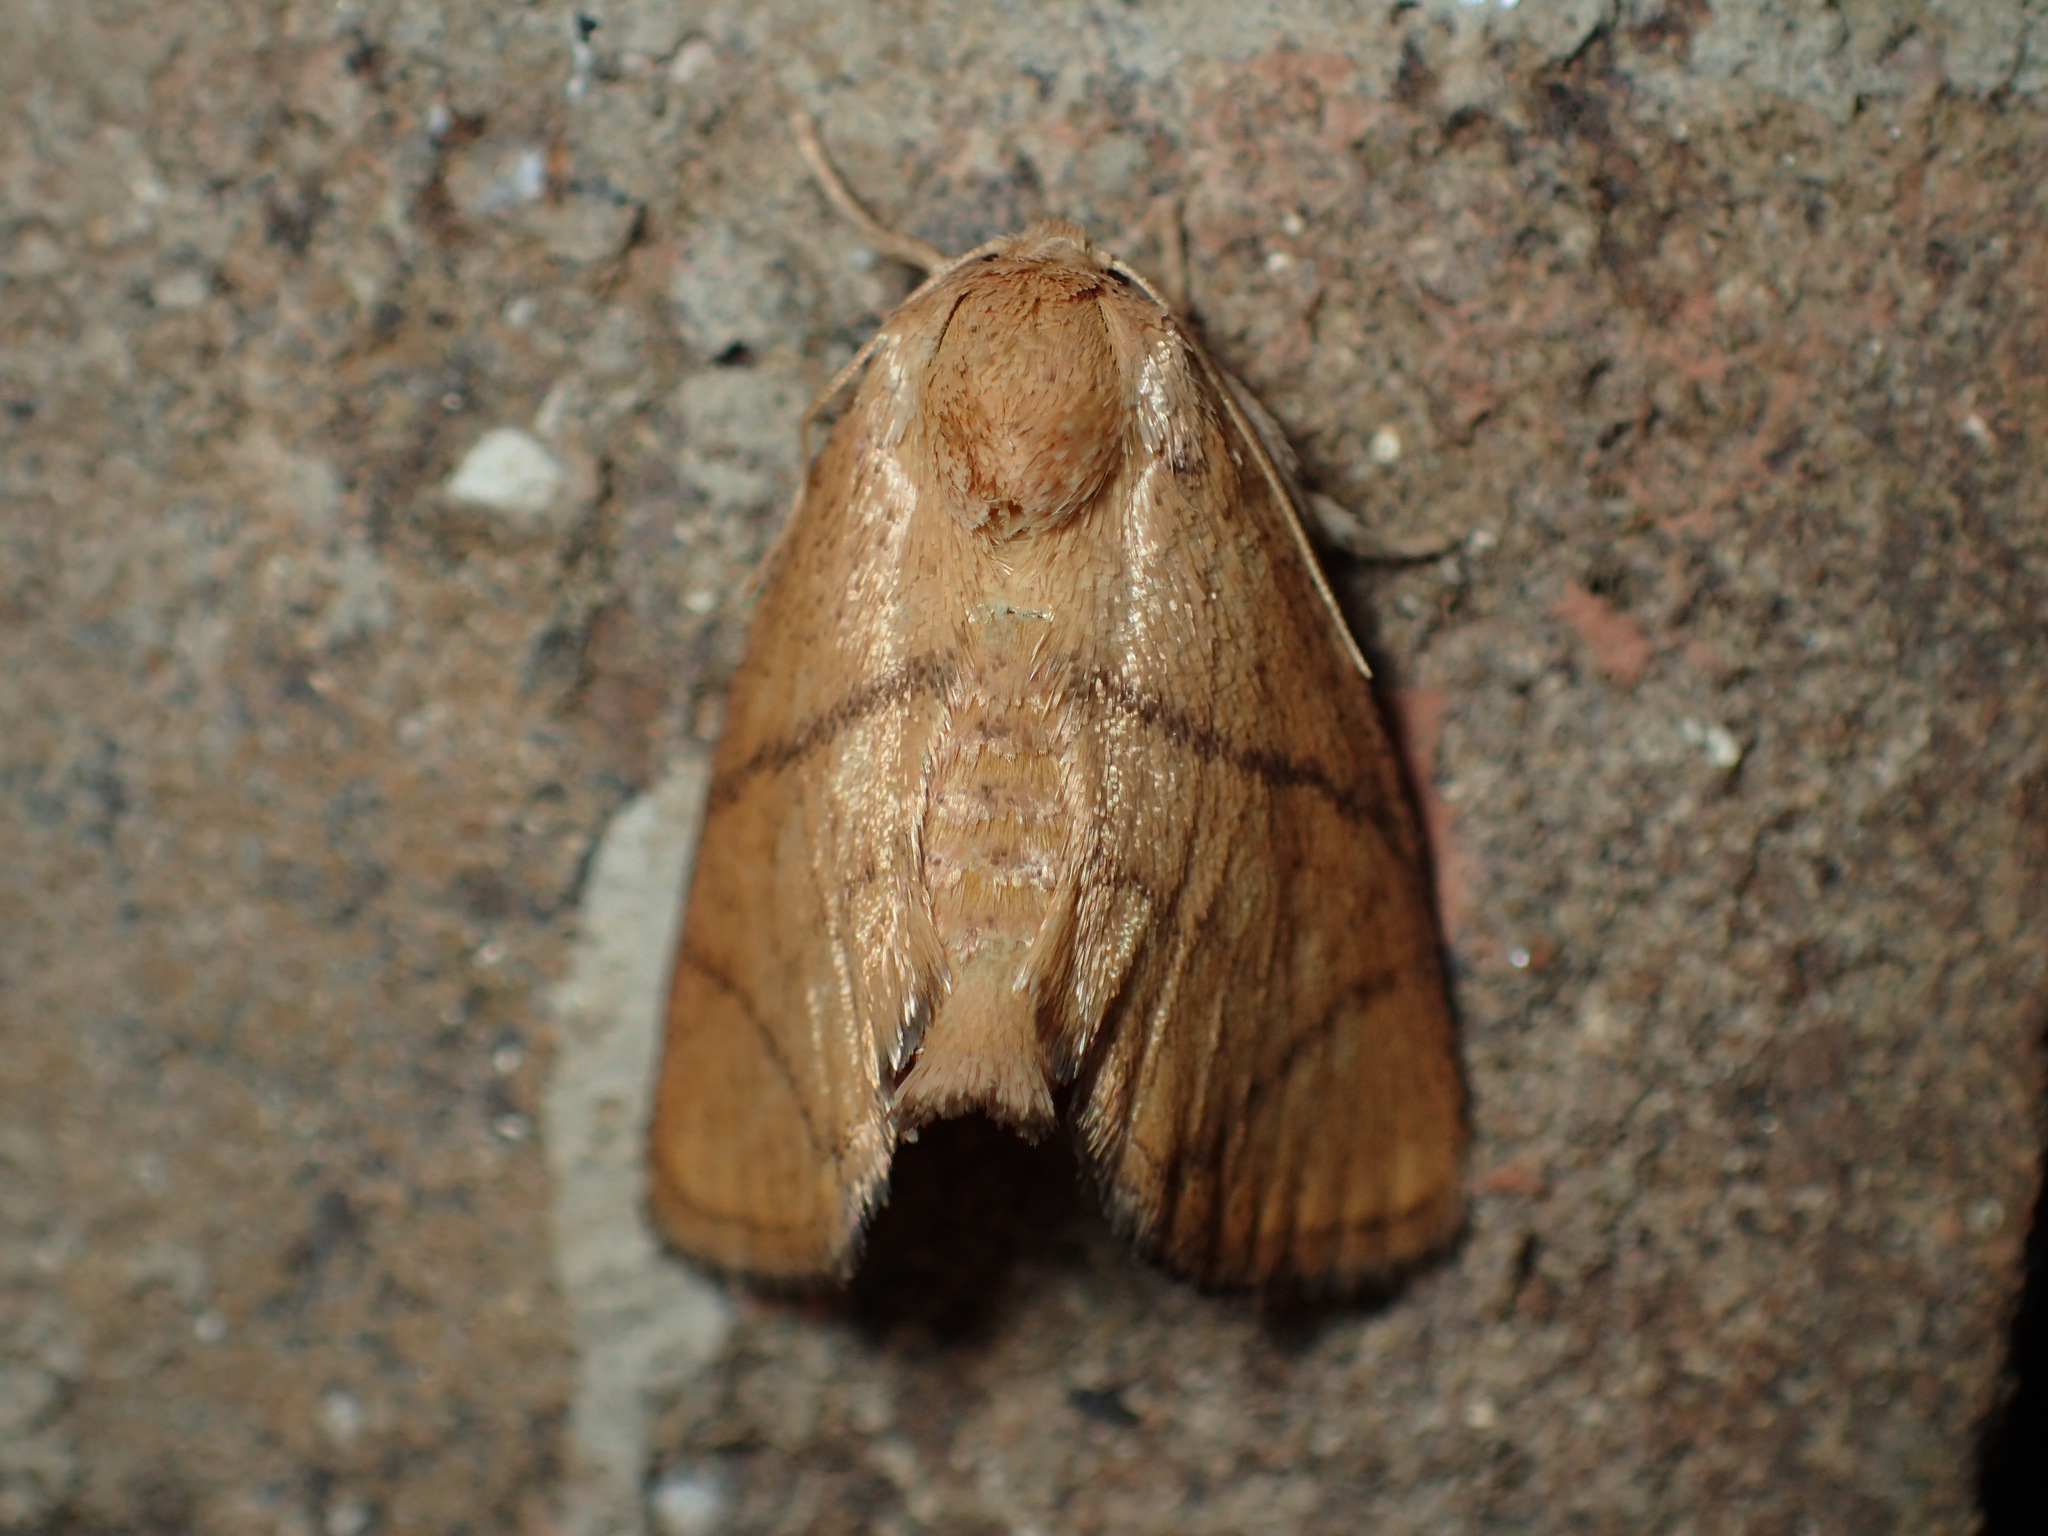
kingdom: Animalia
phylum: Arthropoda
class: Insecta
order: Lepidoptera
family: Limacodidae
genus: Apoda
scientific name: Apoda y-inversa
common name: Yellow-collared slug moth
